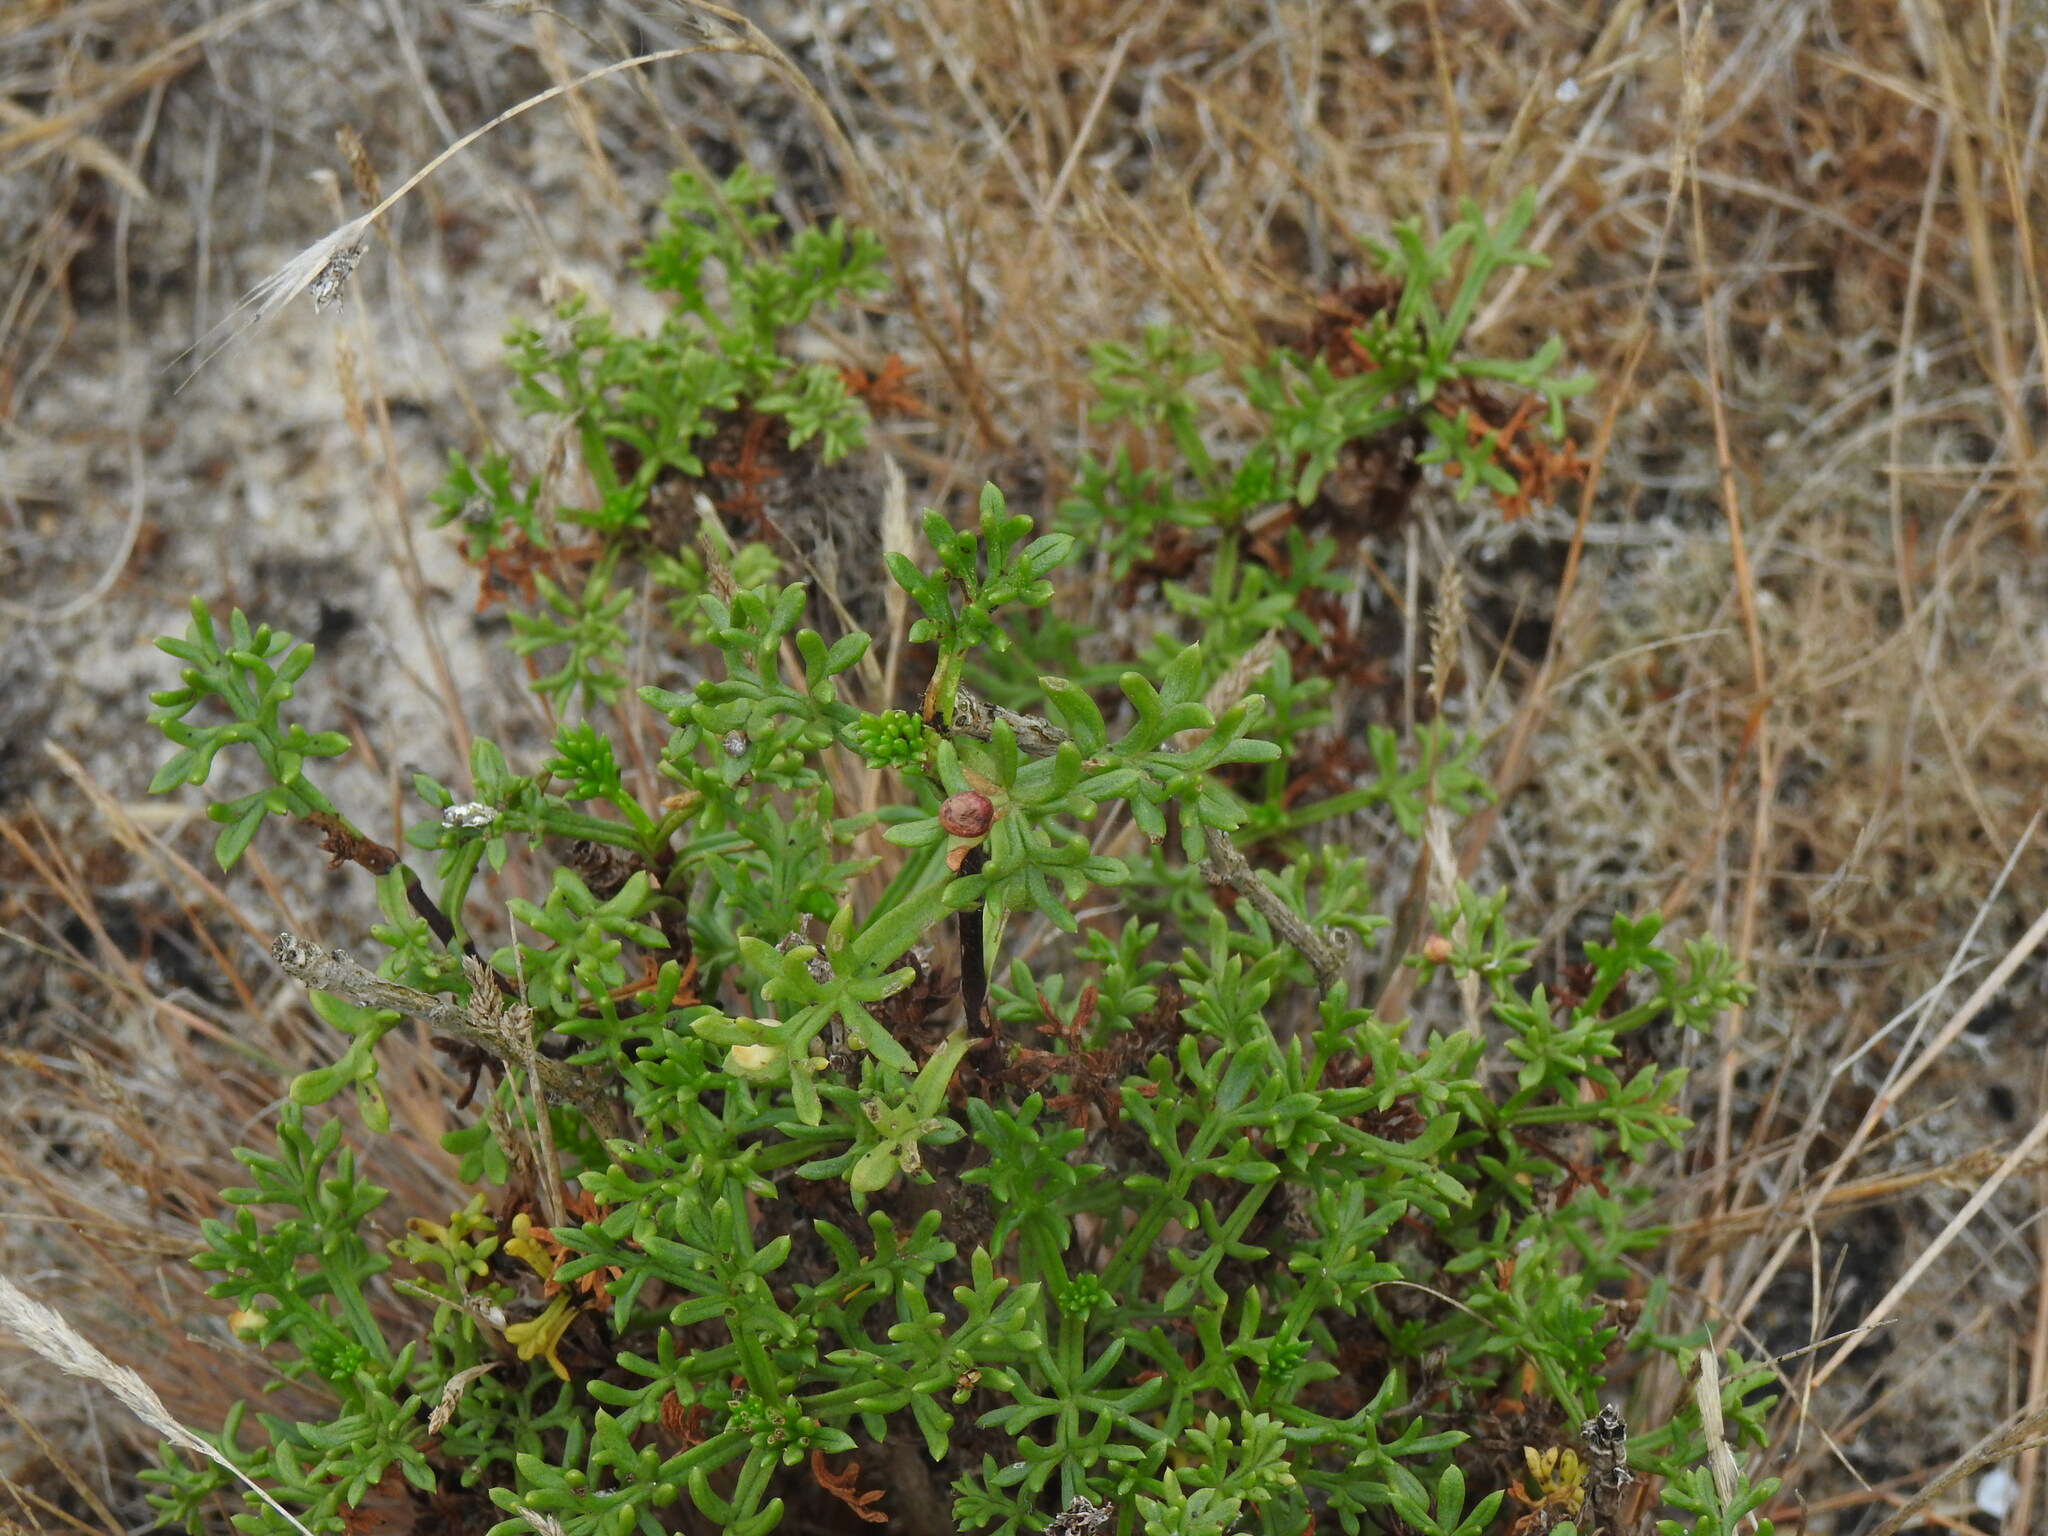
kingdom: Plantae
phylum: Tracheophyta
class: Magnoliopsida
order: Asterales
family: Asteraceae
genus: Artemisia
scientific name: Artemisia crithmifolia
